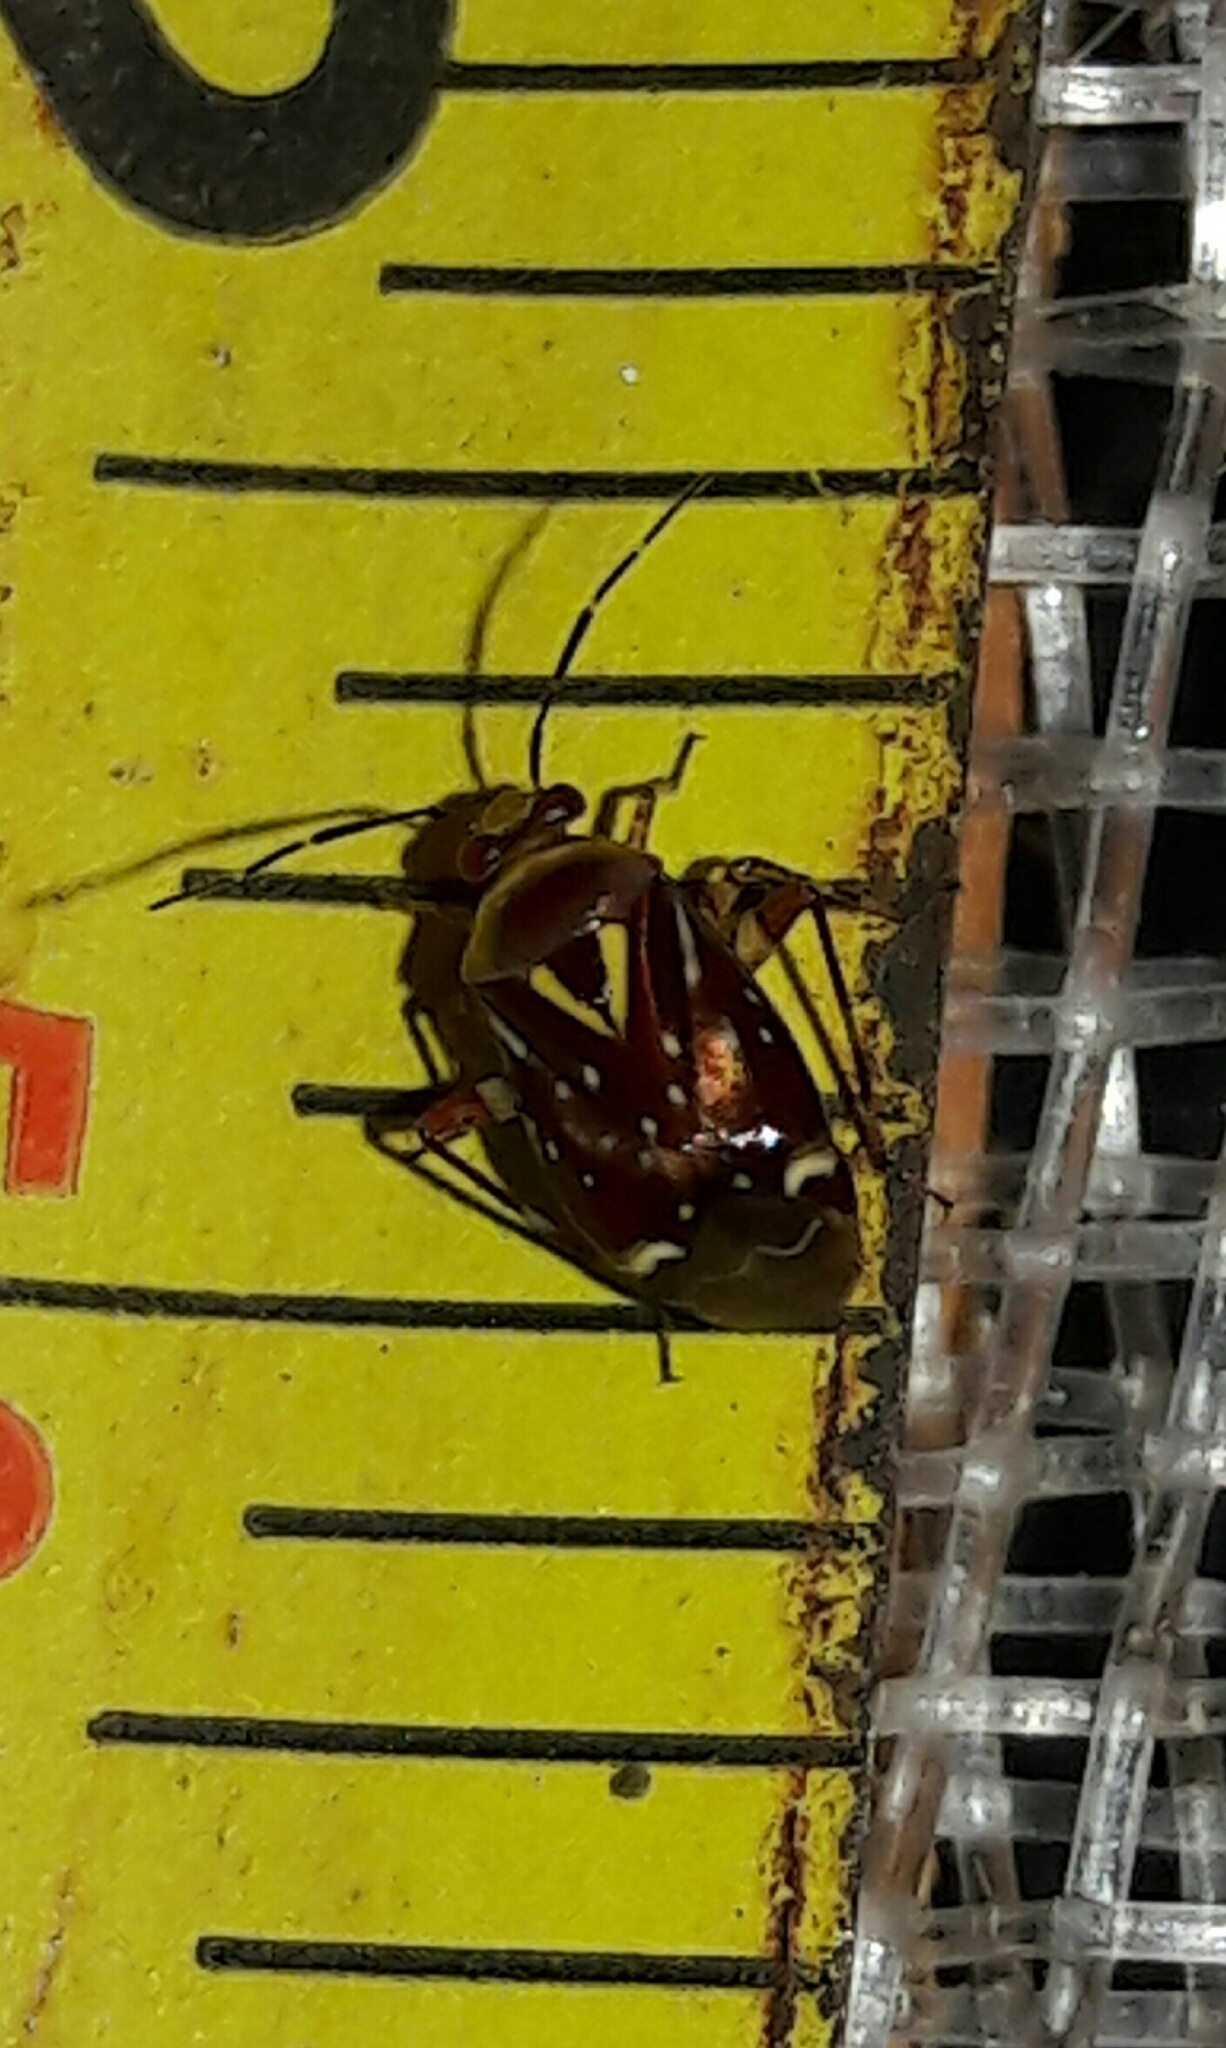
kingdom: Animalia
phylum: Arthropoda
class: Insecta
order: Hemiptera
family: Miridae
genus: Horciasoides
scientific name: Horciasoides nobilellus
